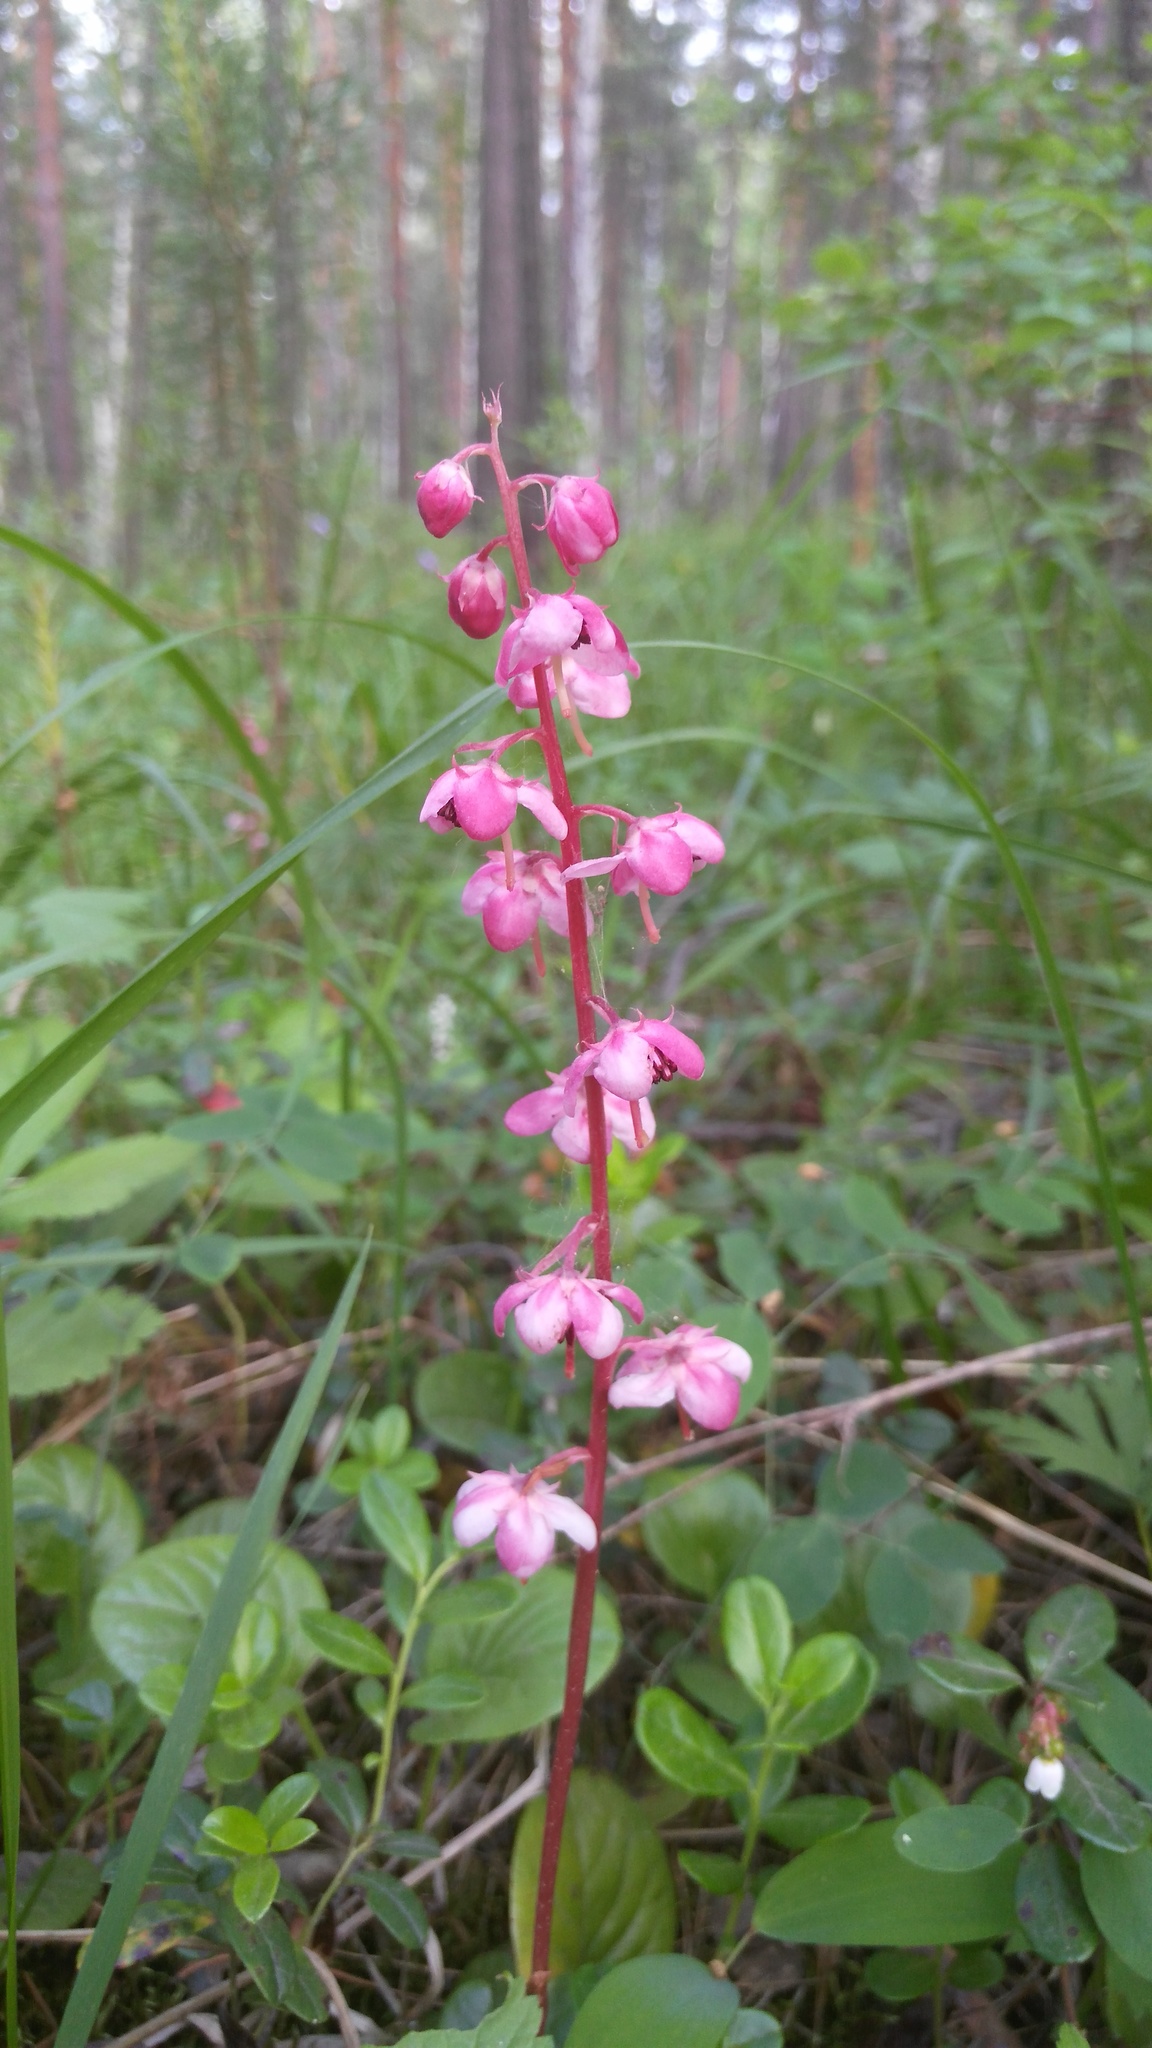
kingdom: Plantae
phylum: Tracheophyta
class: Magnoliopsida
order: Ericales
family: Ericaceae
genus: Pyrola
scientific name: Pyrola asarifolia
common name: Bog wintergreen
